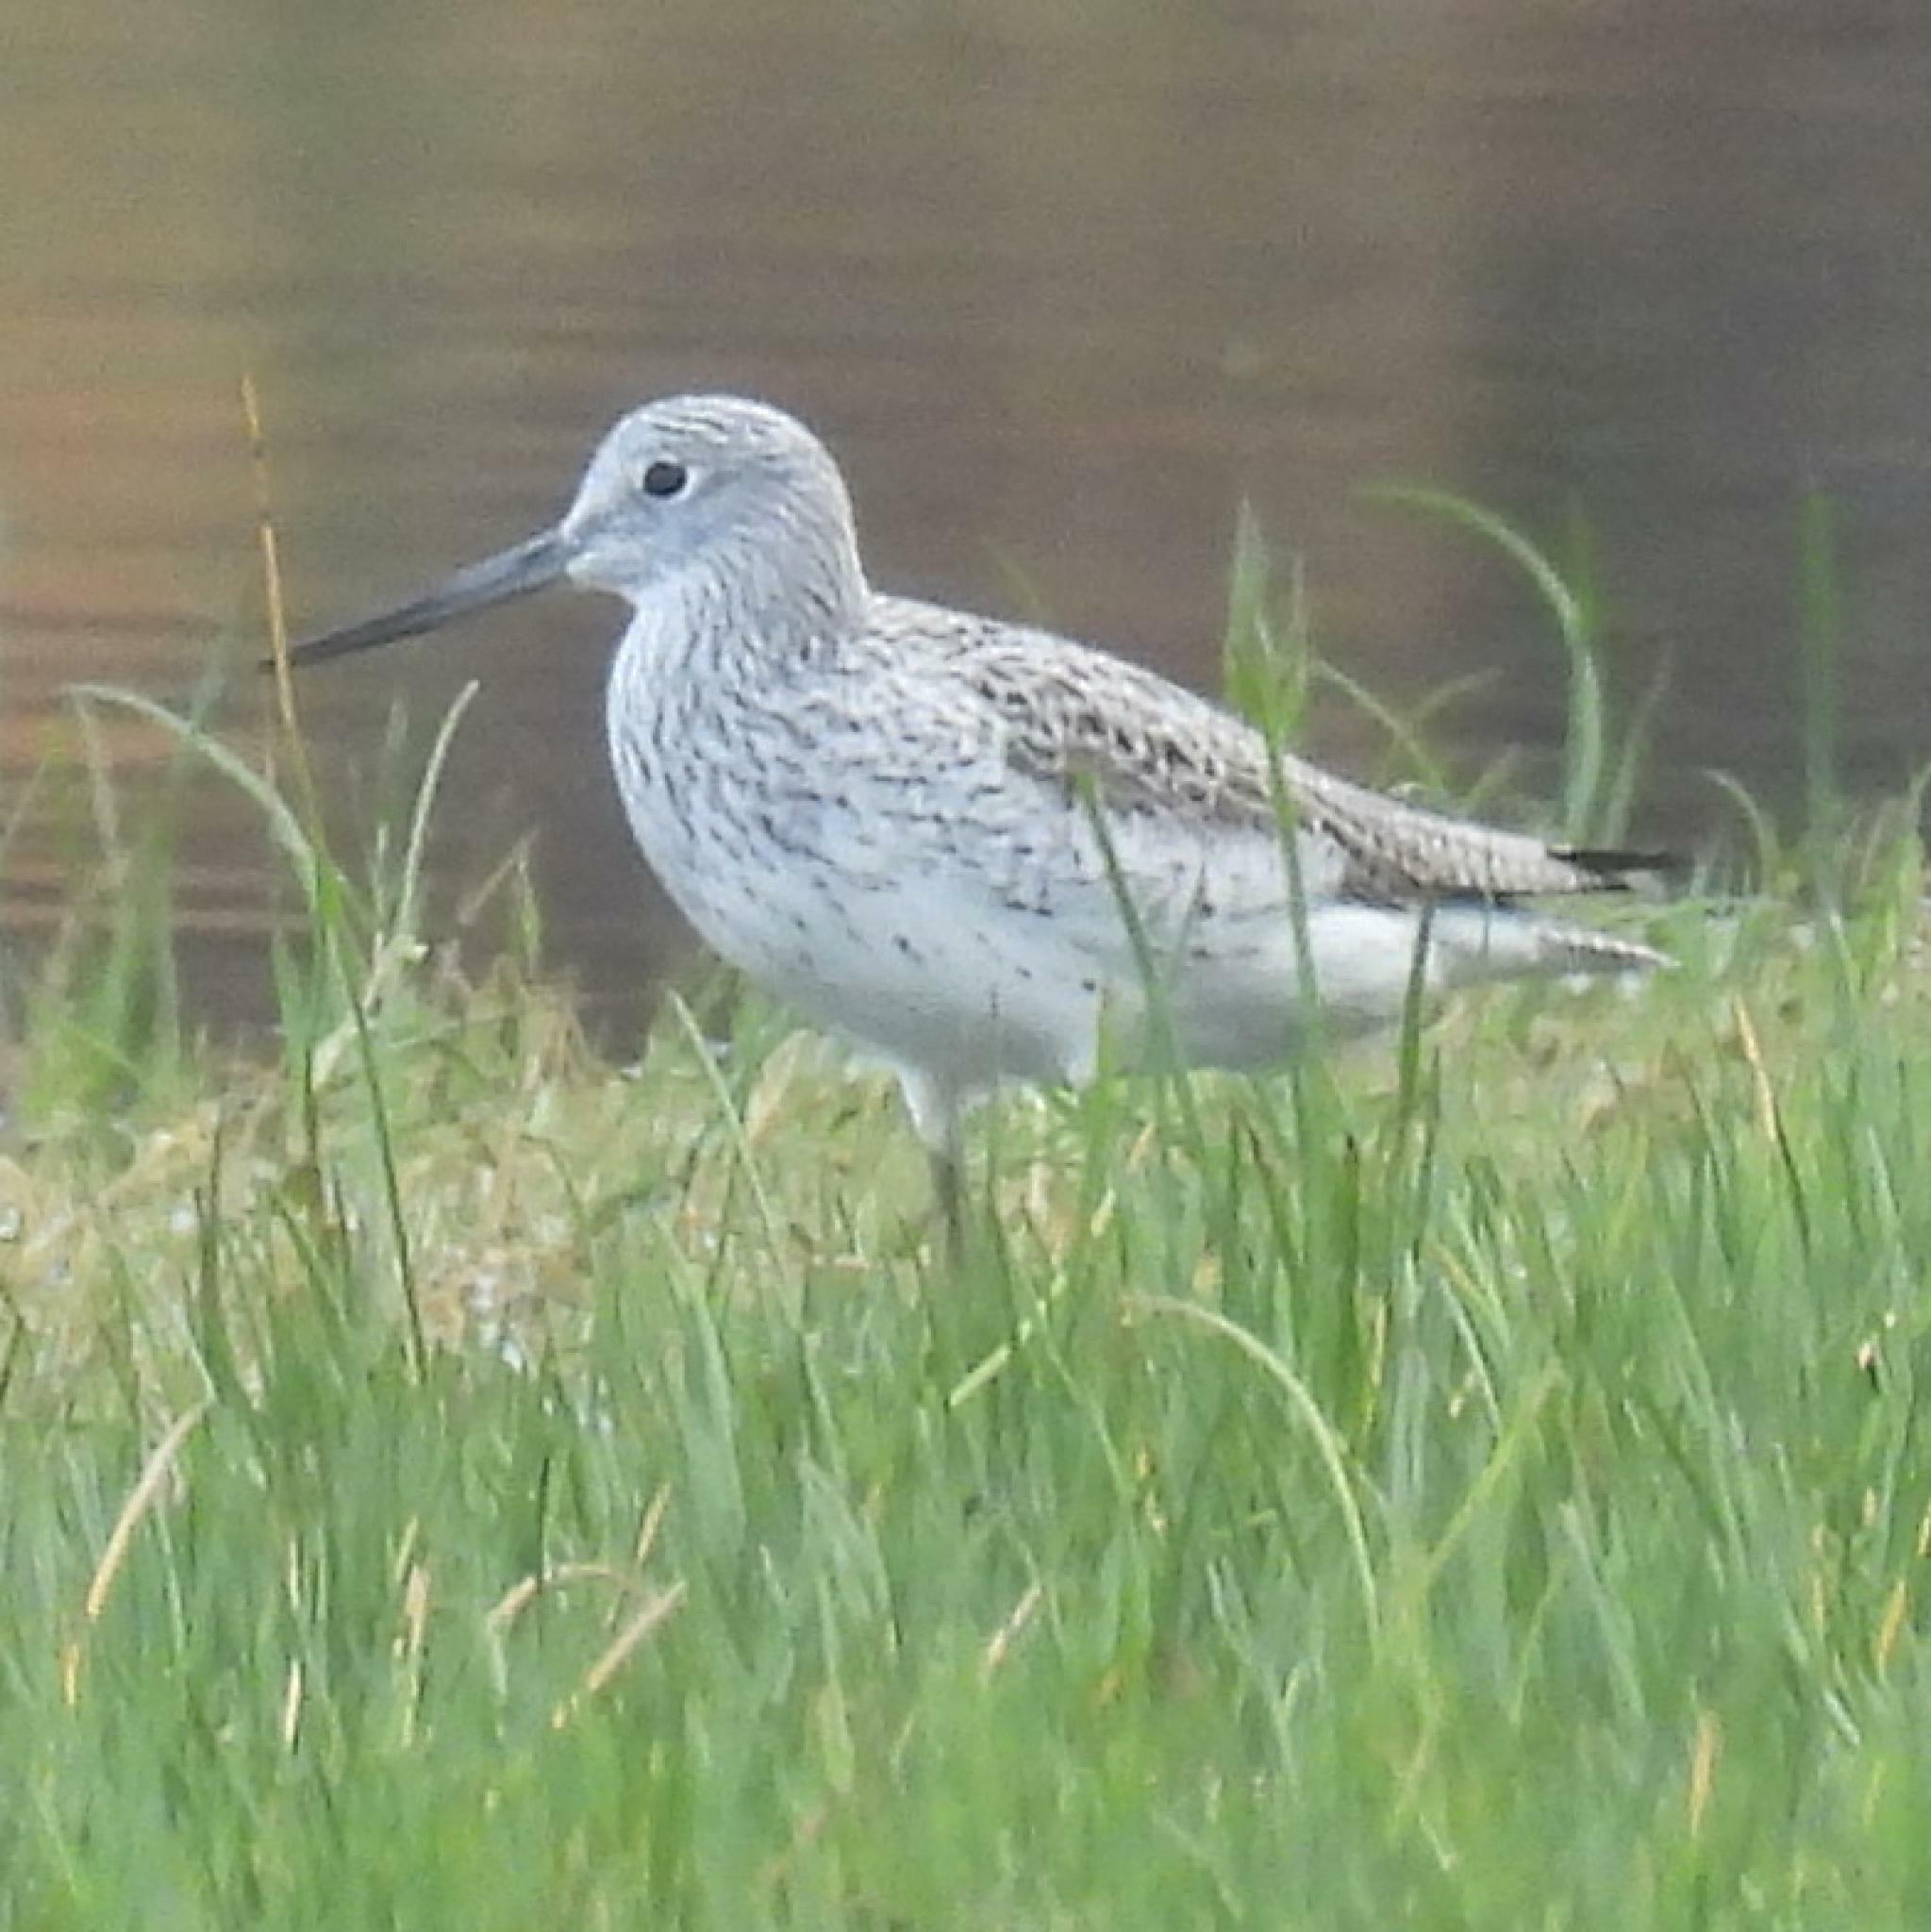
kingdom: Animalia
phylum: Chordata
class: Aves
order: Charadriiformes
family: Scolopacidae
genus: Tringa
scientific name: Tringa nebularia
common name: Common greenshank
